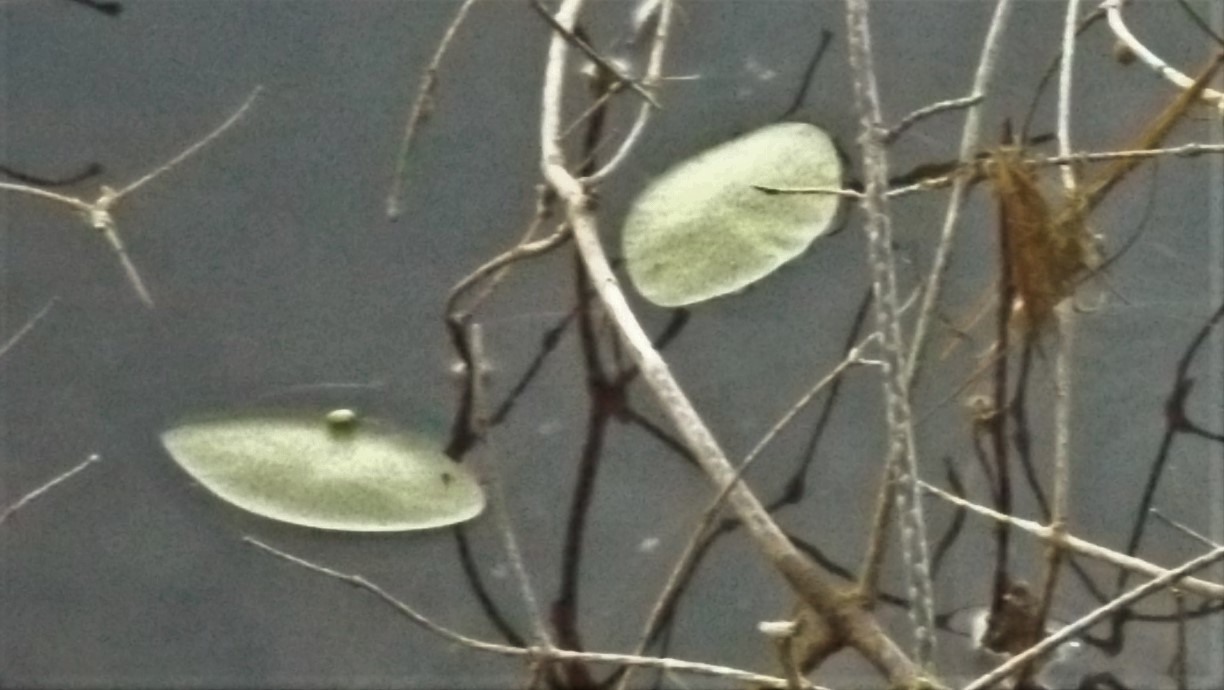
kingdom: Plantae
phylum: Tracheophyta
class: Magnoliopsida
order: Nymphaeales
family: Cabombaceae
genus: Brasenia
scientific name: Brasenia schreberi
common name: Water-shield
